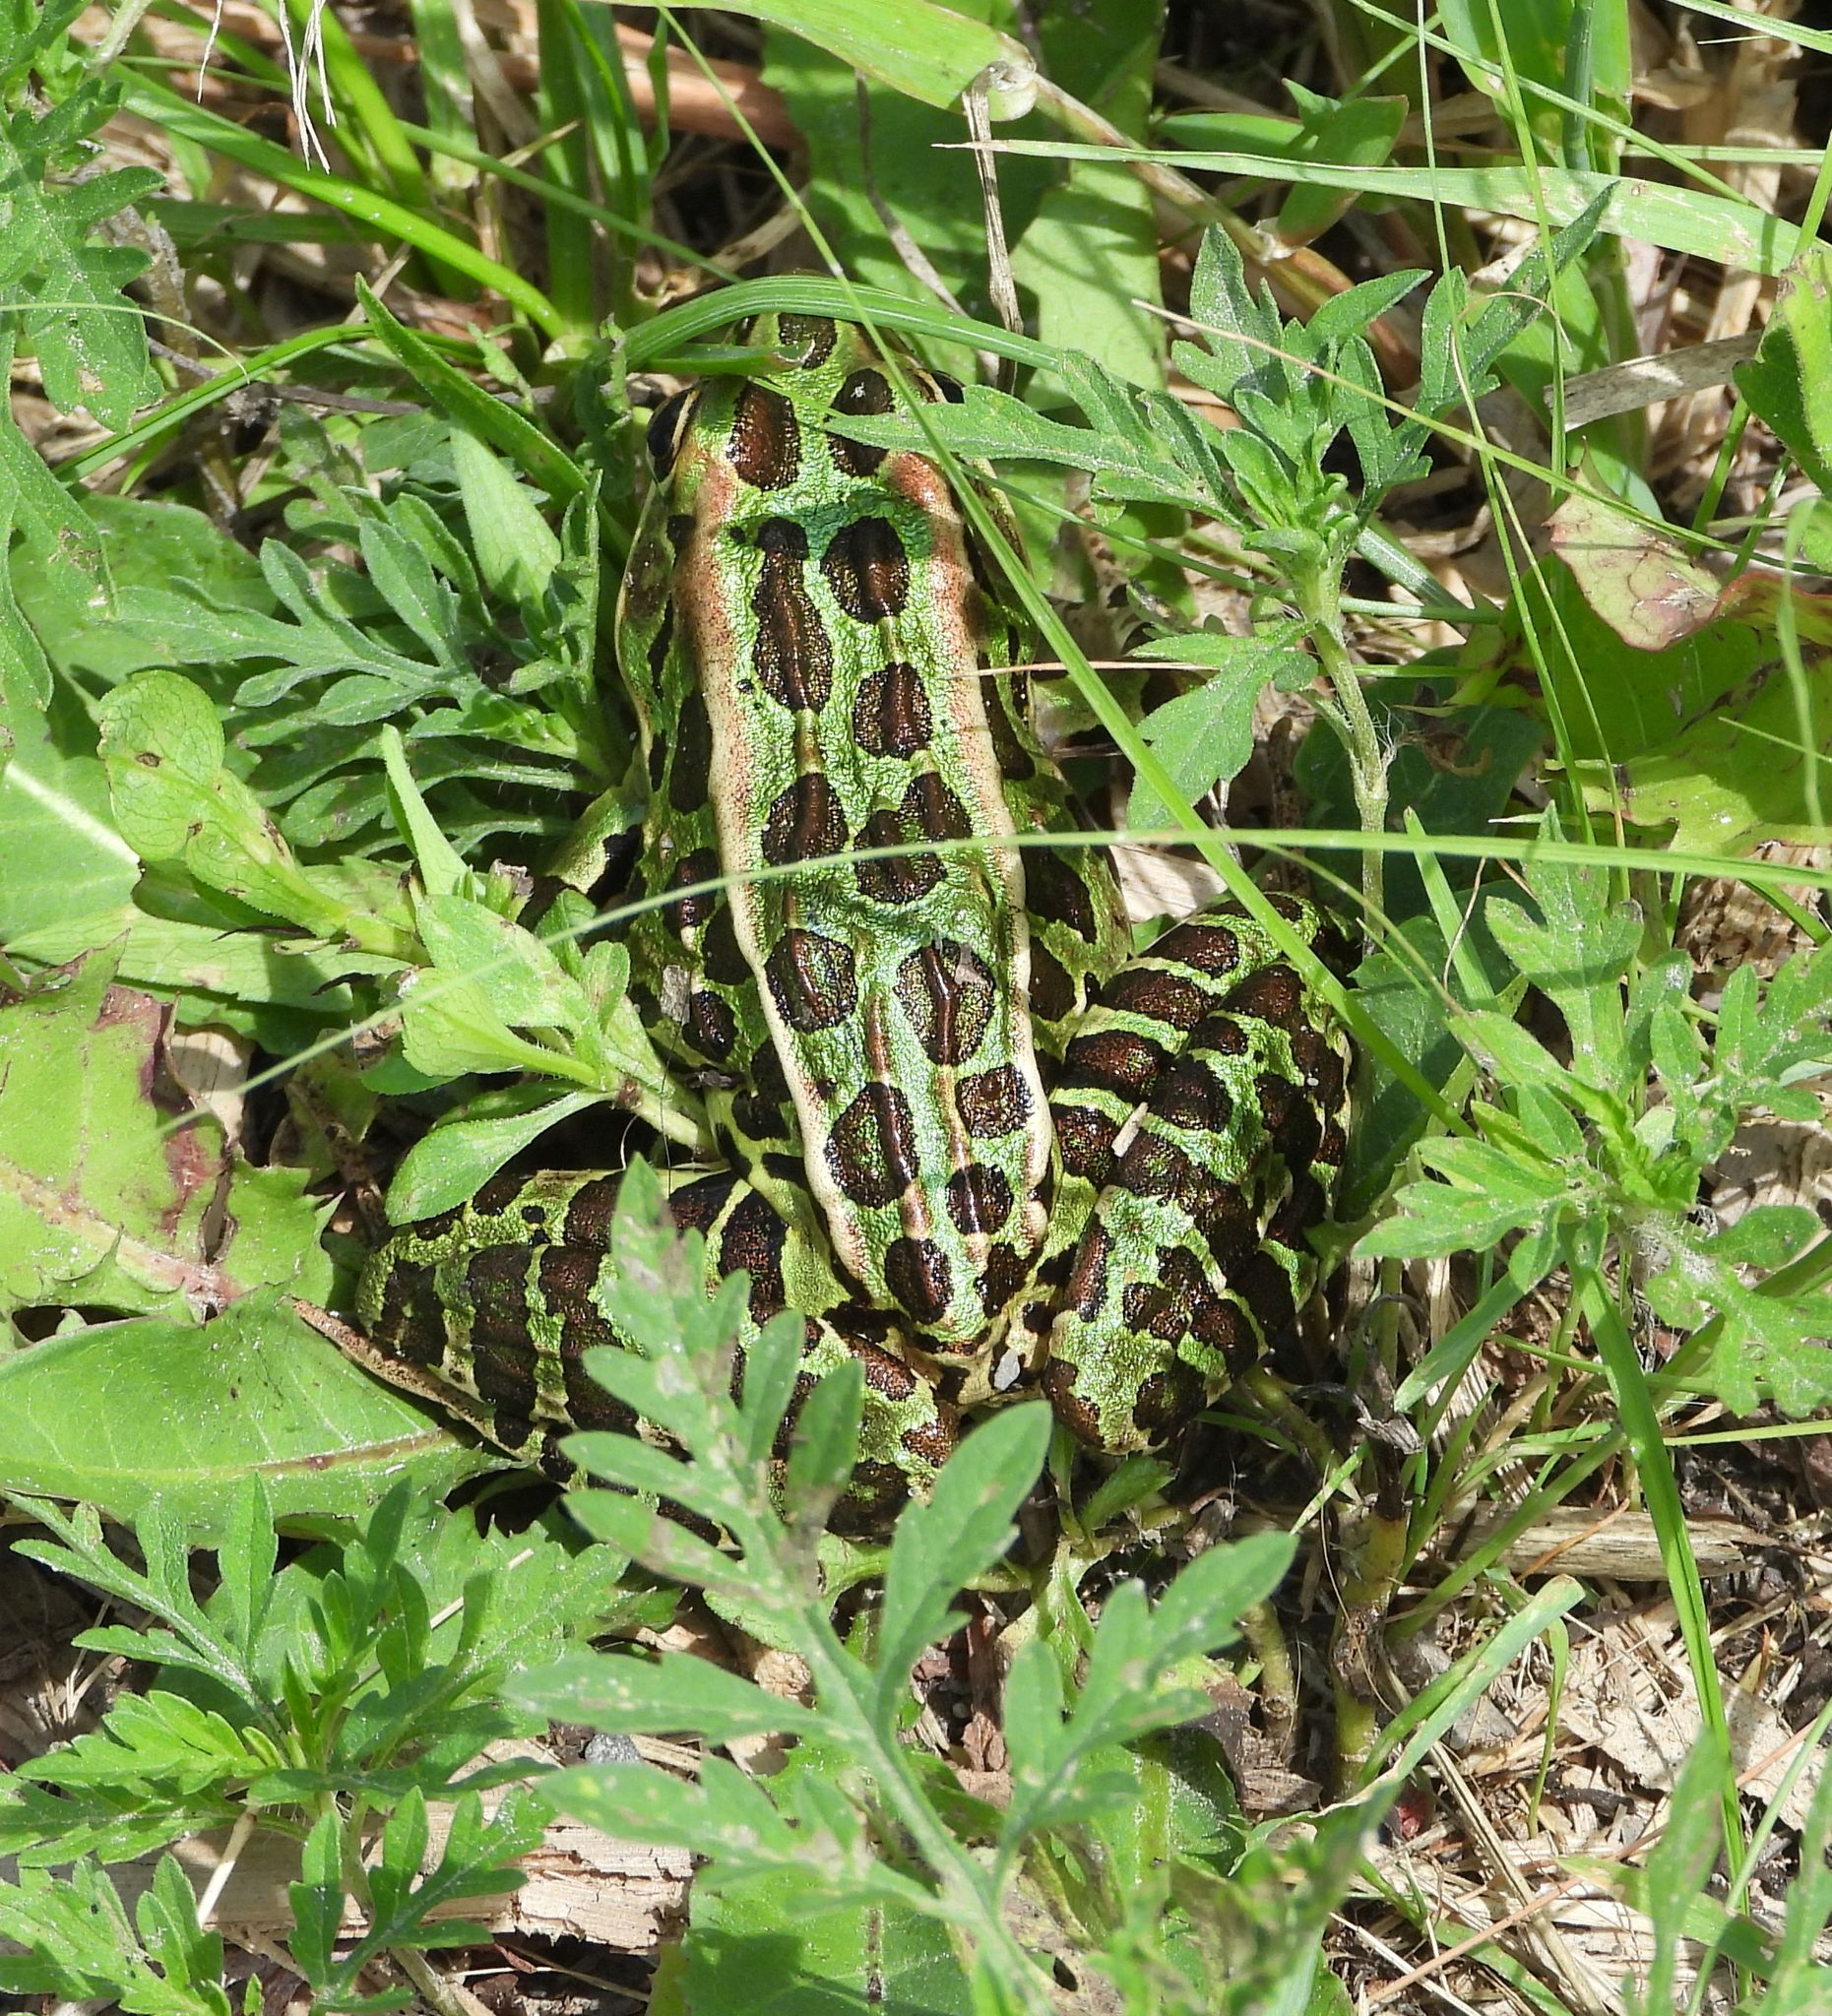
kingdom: Animalia
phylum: Chordata
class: Amphibia
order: Anura
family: Ranidae
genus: Lithobates
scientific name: Lithobates pipiens
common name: Northern leopard frog
